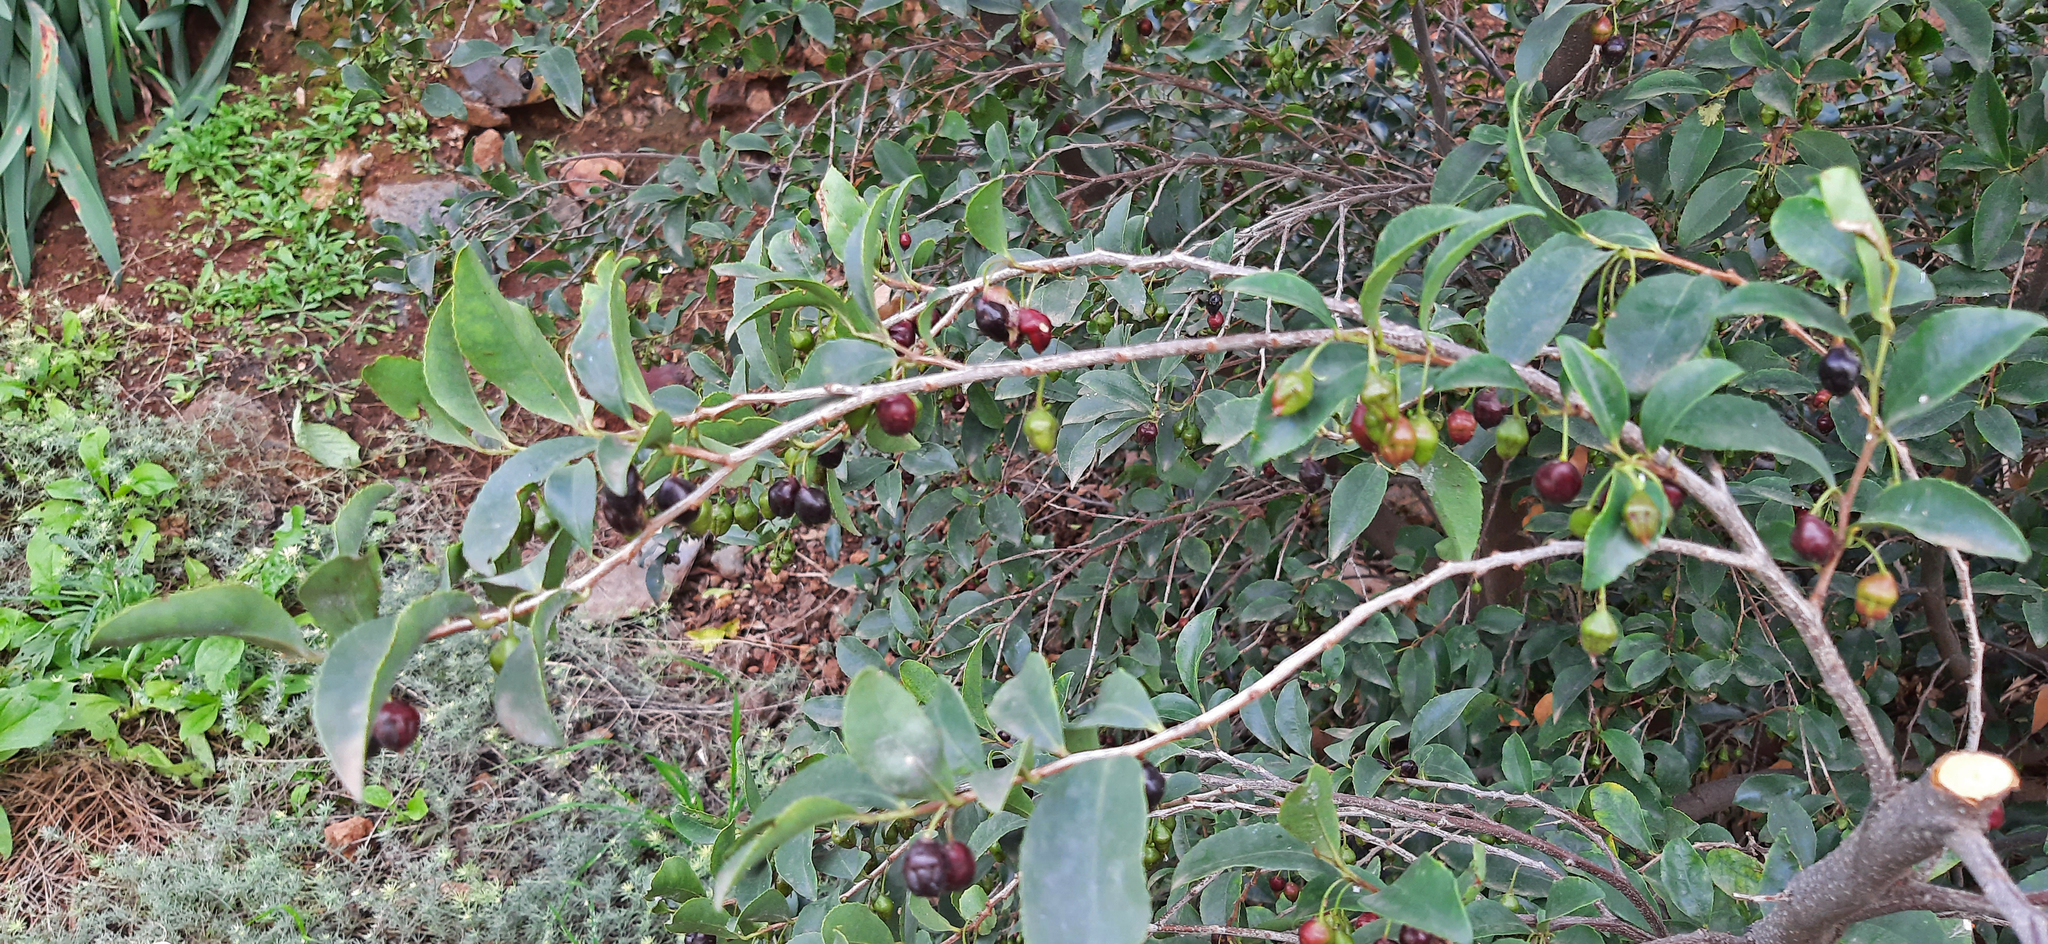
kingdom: Plantae
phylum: Tracheophyta
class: Magnoliopsida
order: Ericales
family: Pentaphylacaceae
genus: Visnea
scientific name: Visnea mocanera
